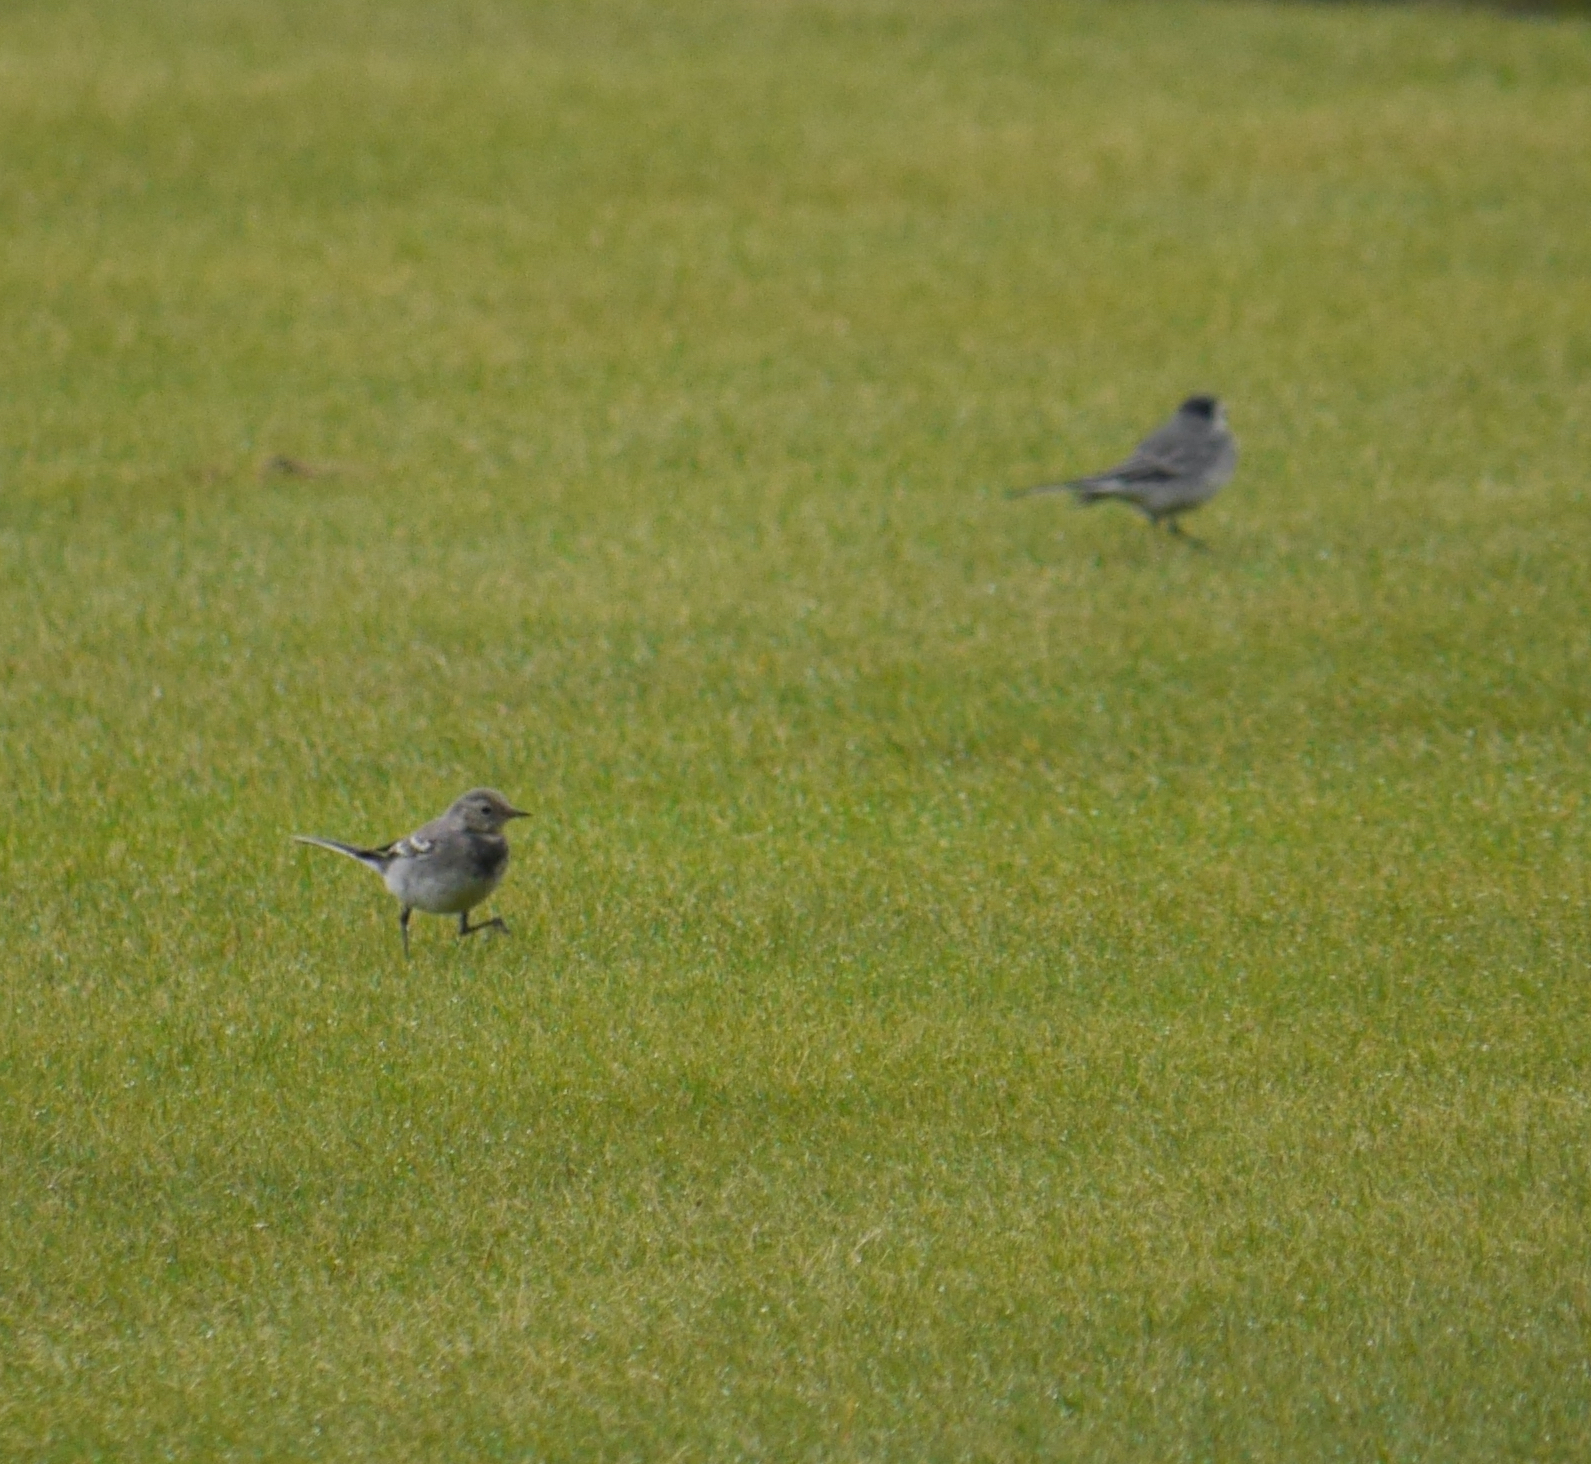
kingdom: Animalia
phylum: Chordata
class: Aves
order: Passeriformes
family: Motacillidae
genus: Motacilla
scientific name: Motacilla alba
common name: White wagtail
